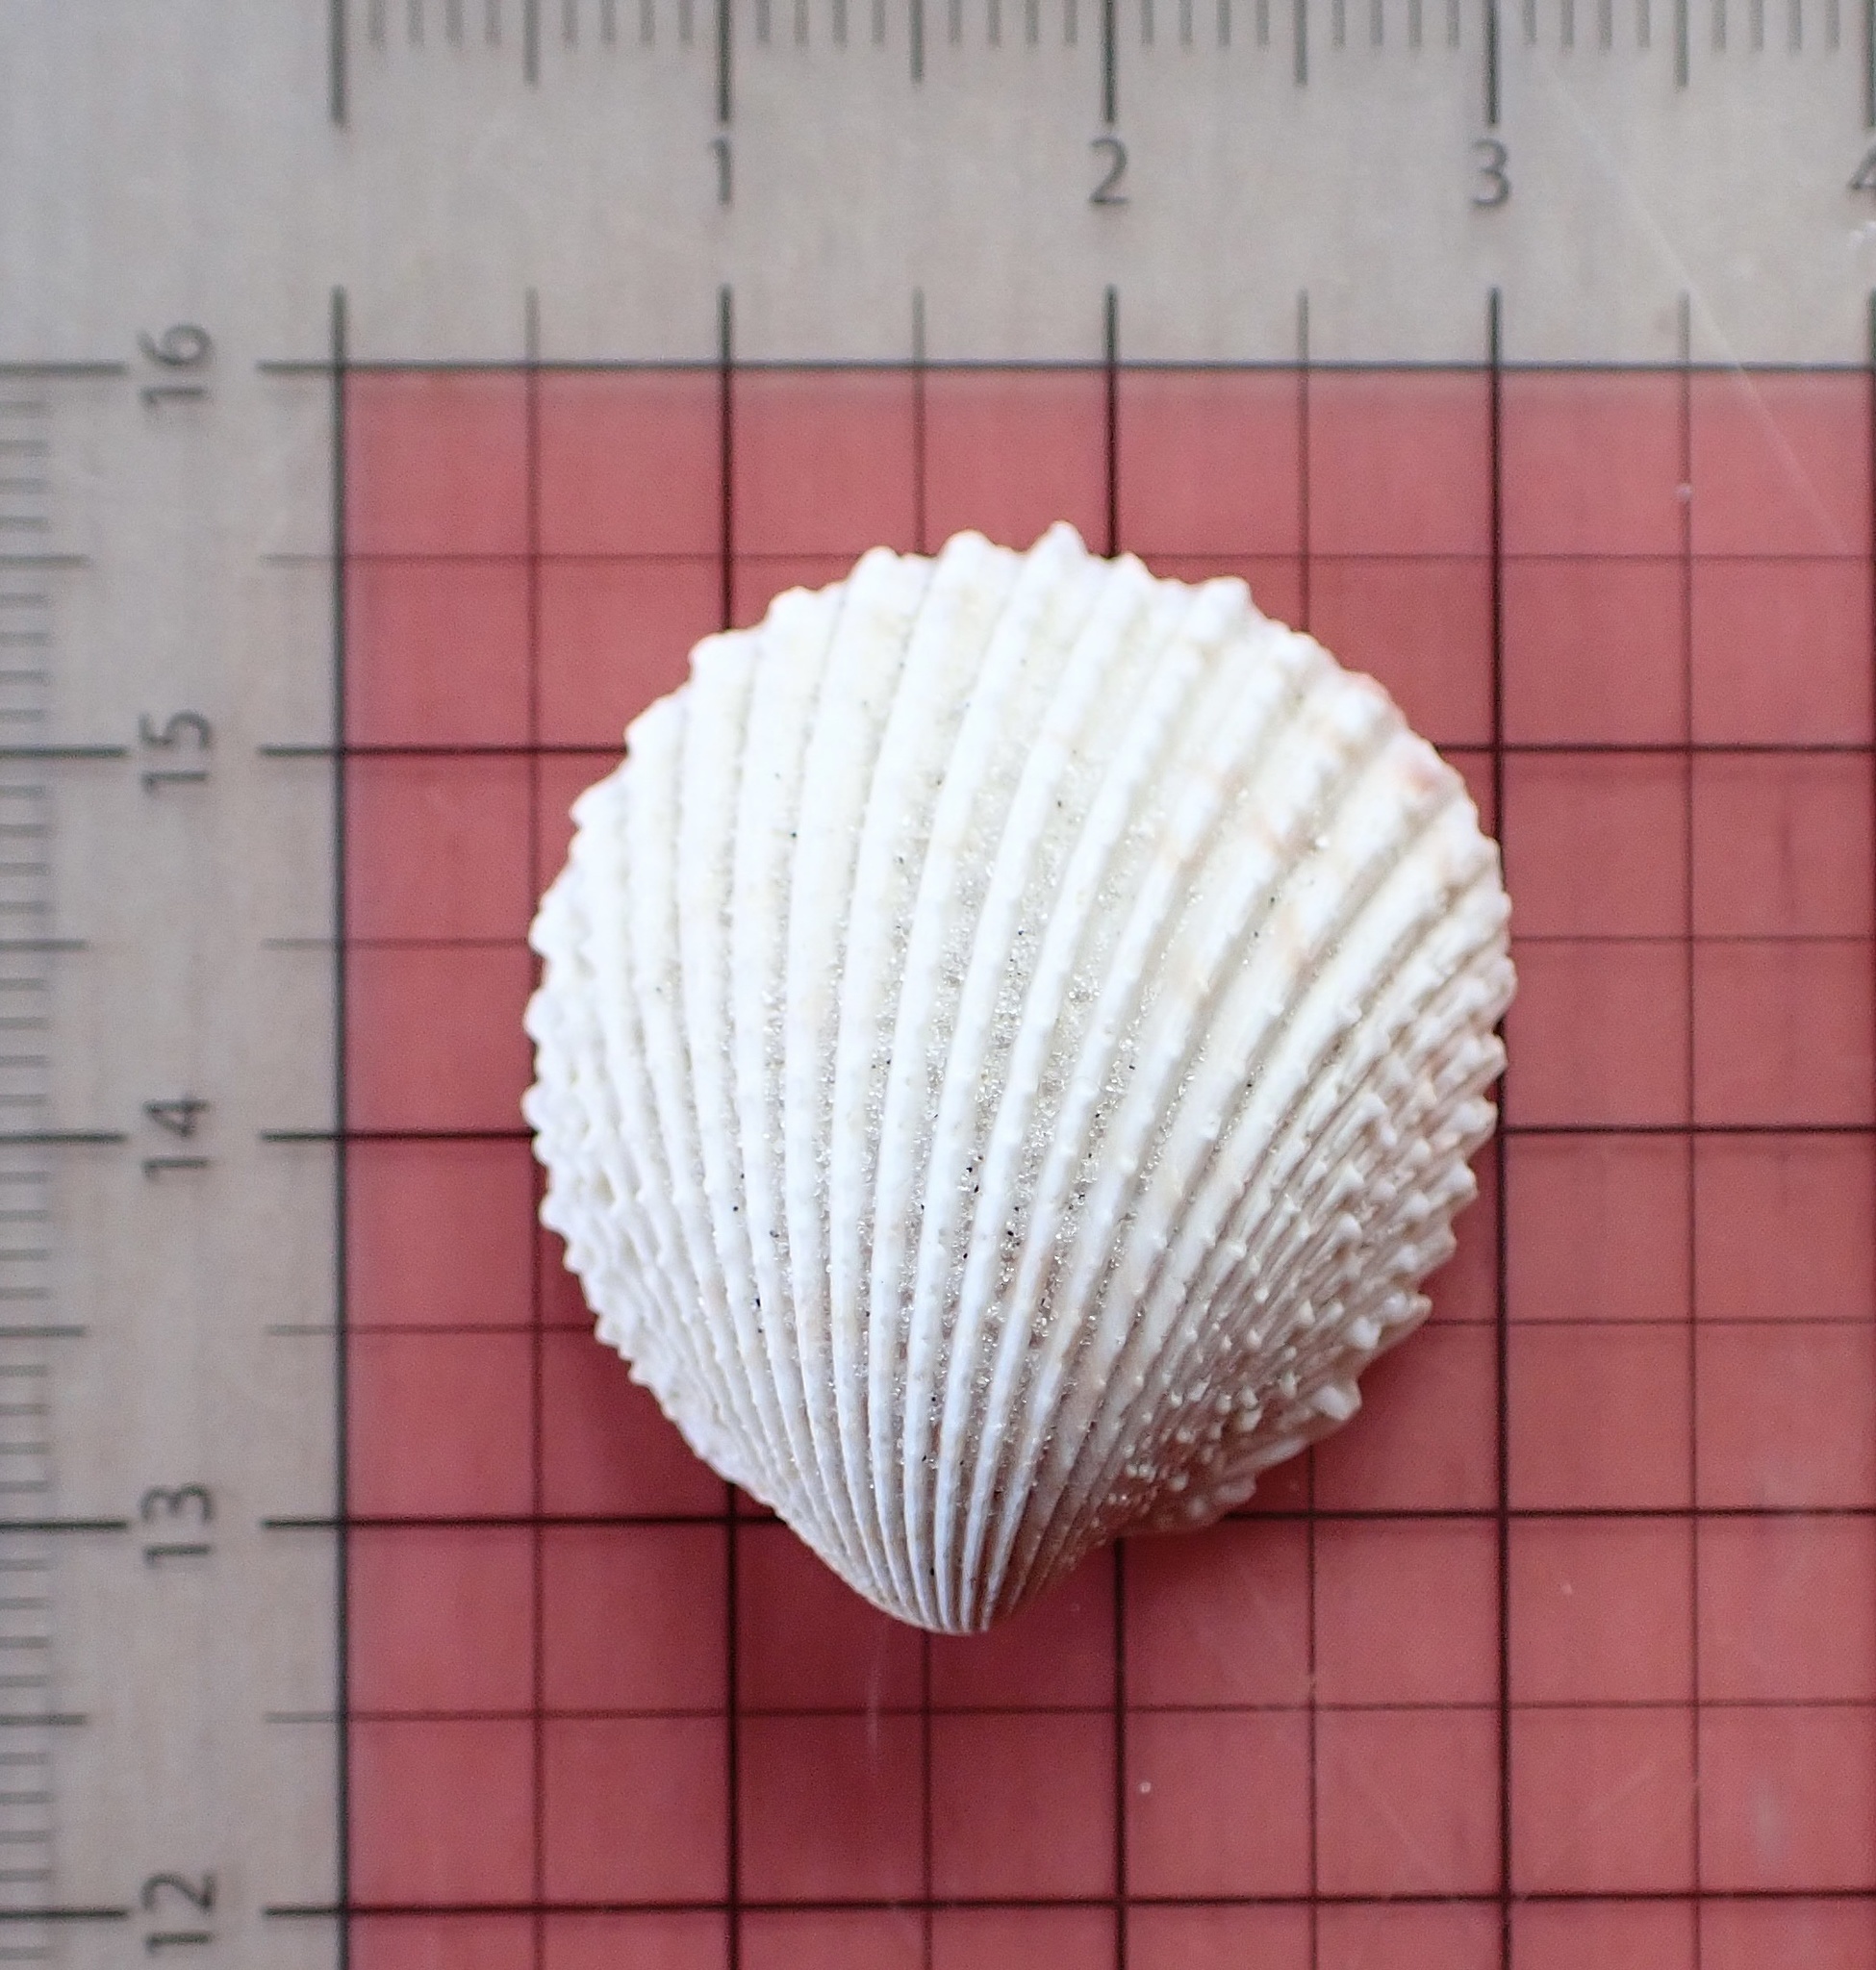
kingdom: Animalia
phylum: Mollusca
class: Bivalvia
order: Cardiida
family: Cardiidae
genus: Trachycardium
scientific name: Trachycardium egmontianum
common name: Florida pricklycockle
